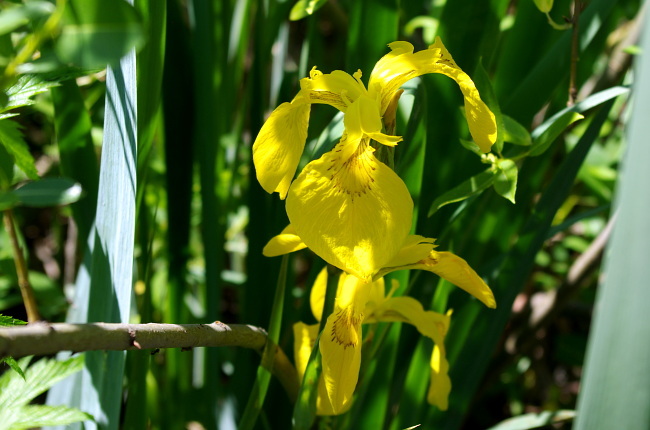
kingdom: Plantae
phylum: Tracheophyta
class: Liliopsida
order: Asparagales
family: Iridaceae
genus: Iris
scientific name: Iris pseudacorus
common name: Yellow flag
